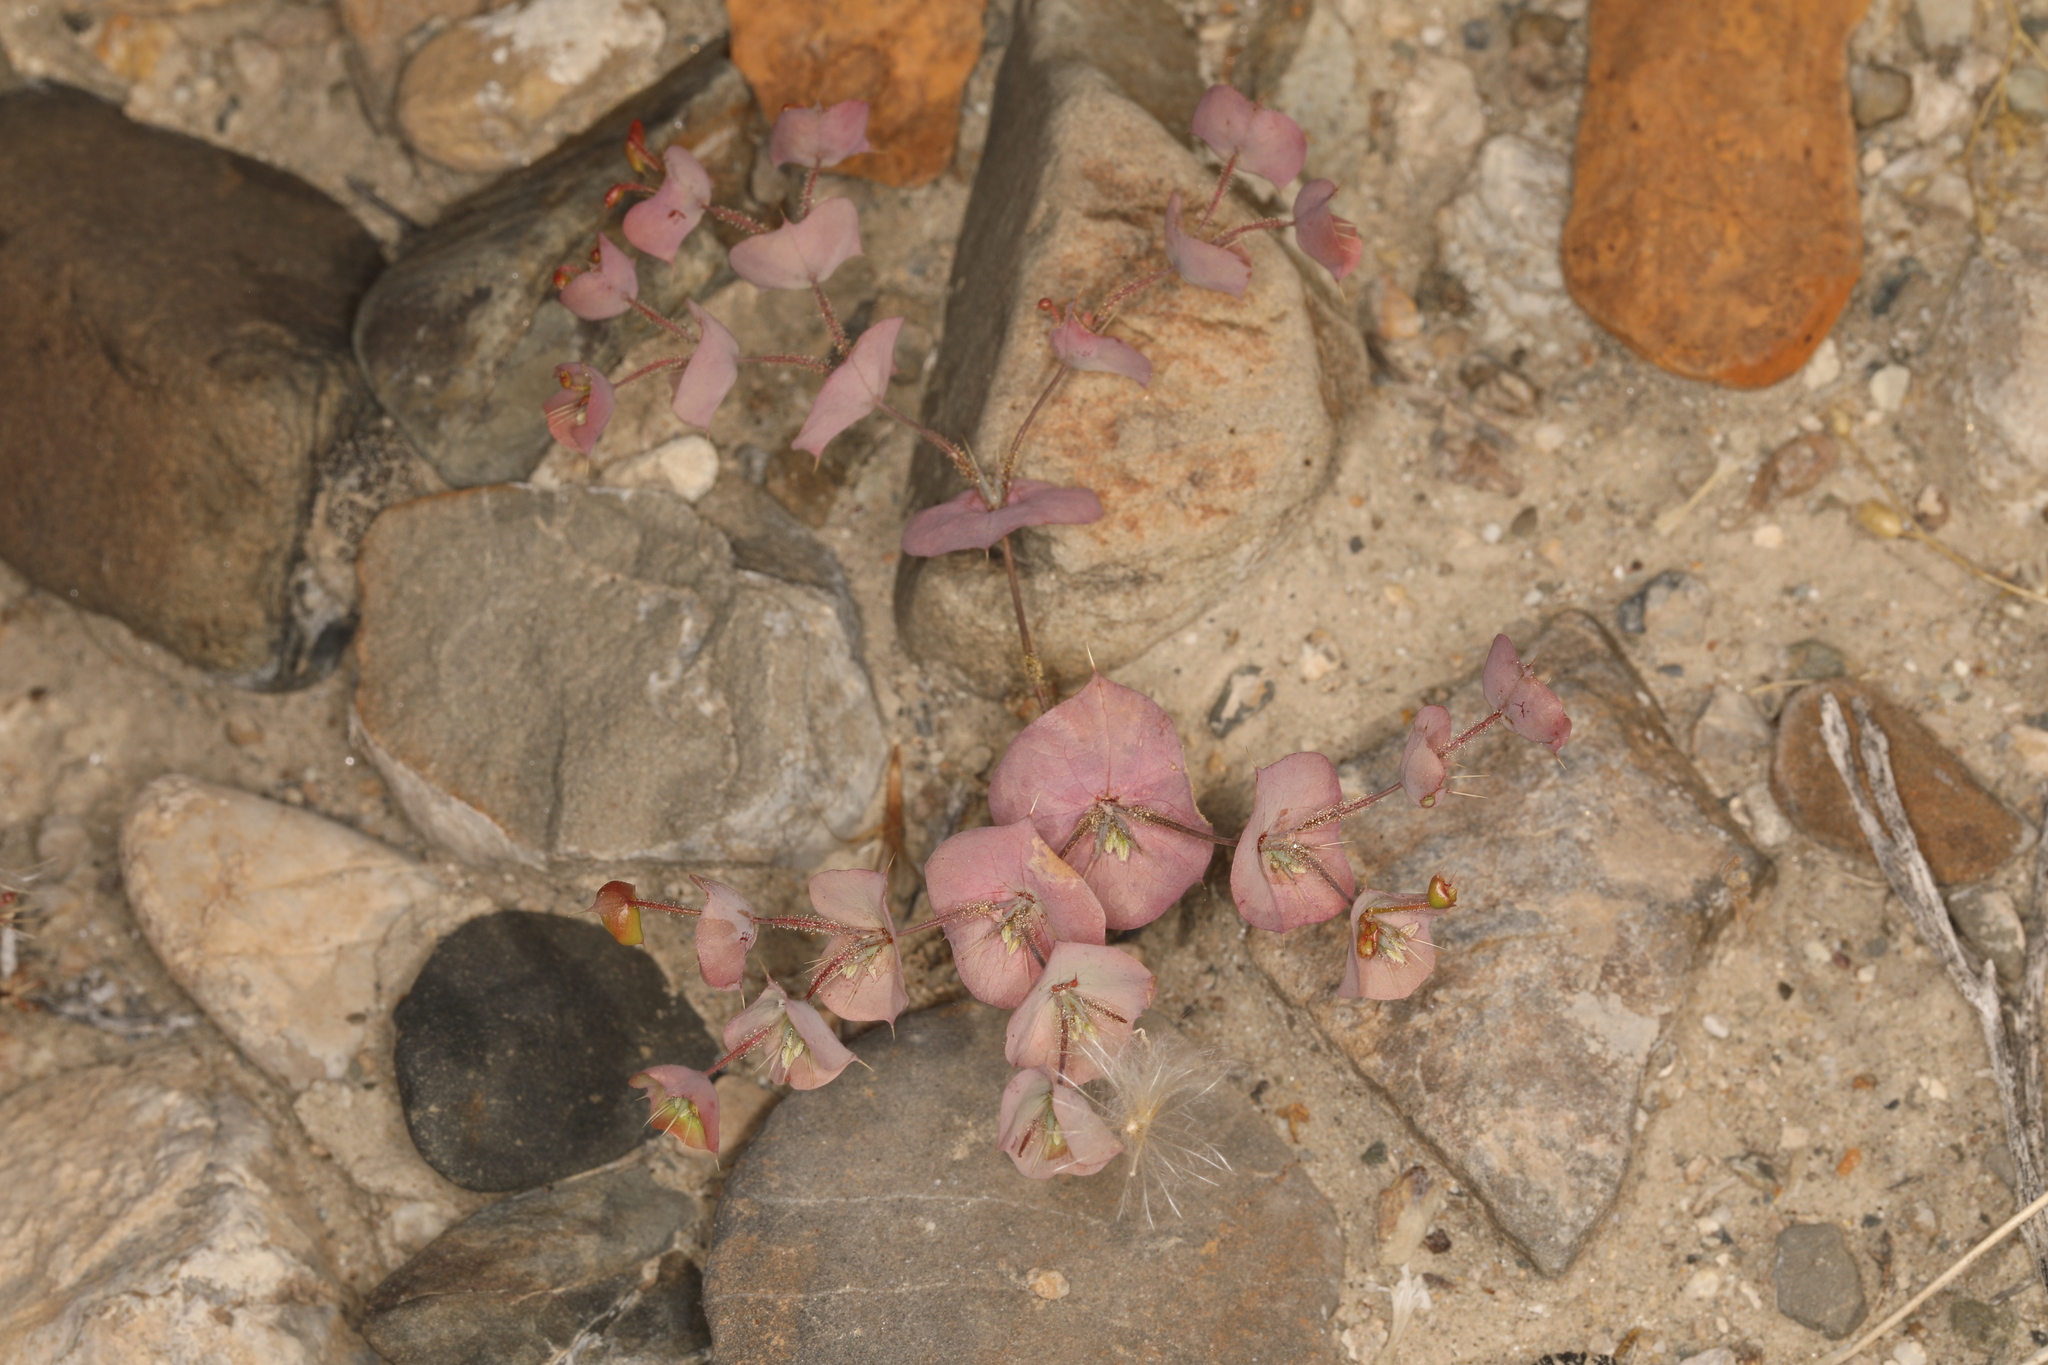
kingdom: Plantae
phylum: Tracheophyta
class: Magnoliopsida
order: Caryophyllales
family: Polygonaceae
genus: Oxytheca
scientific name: Oxytheca perfoliata
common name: Round-leaf puncturebract
